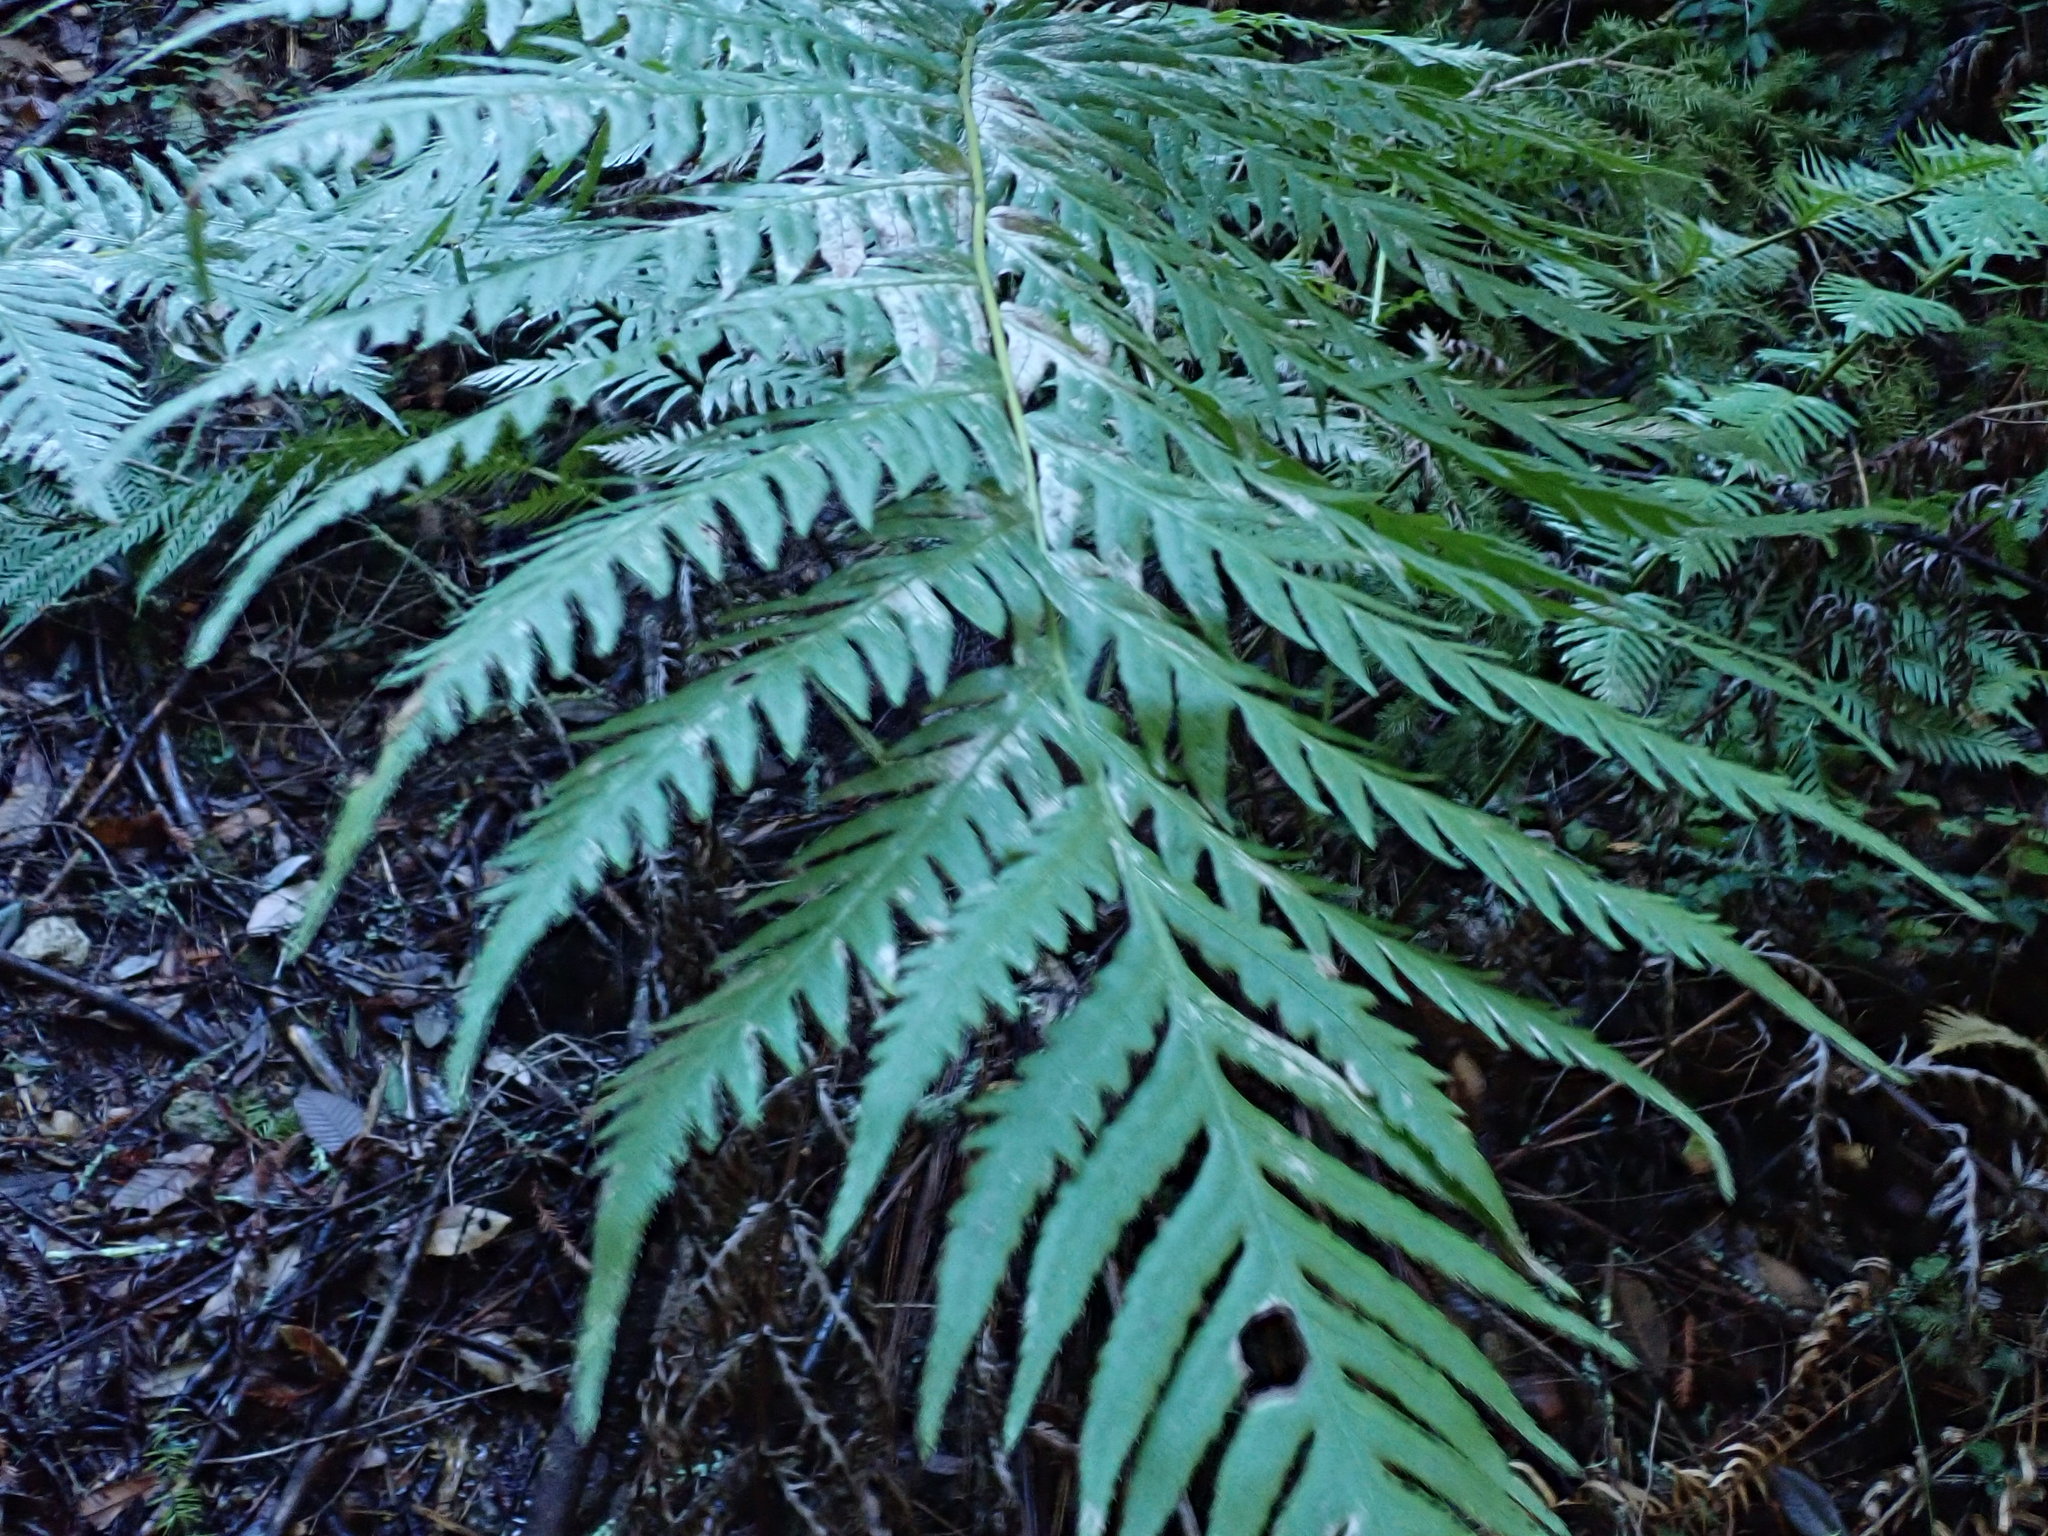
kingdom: Plantae
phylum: Tracheophyta
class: Polypodiopsida
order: Polypodiales
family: Blechnaceae
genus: Woodwardia
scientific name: Woodwardia fimbriata
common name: Giant chain fern
